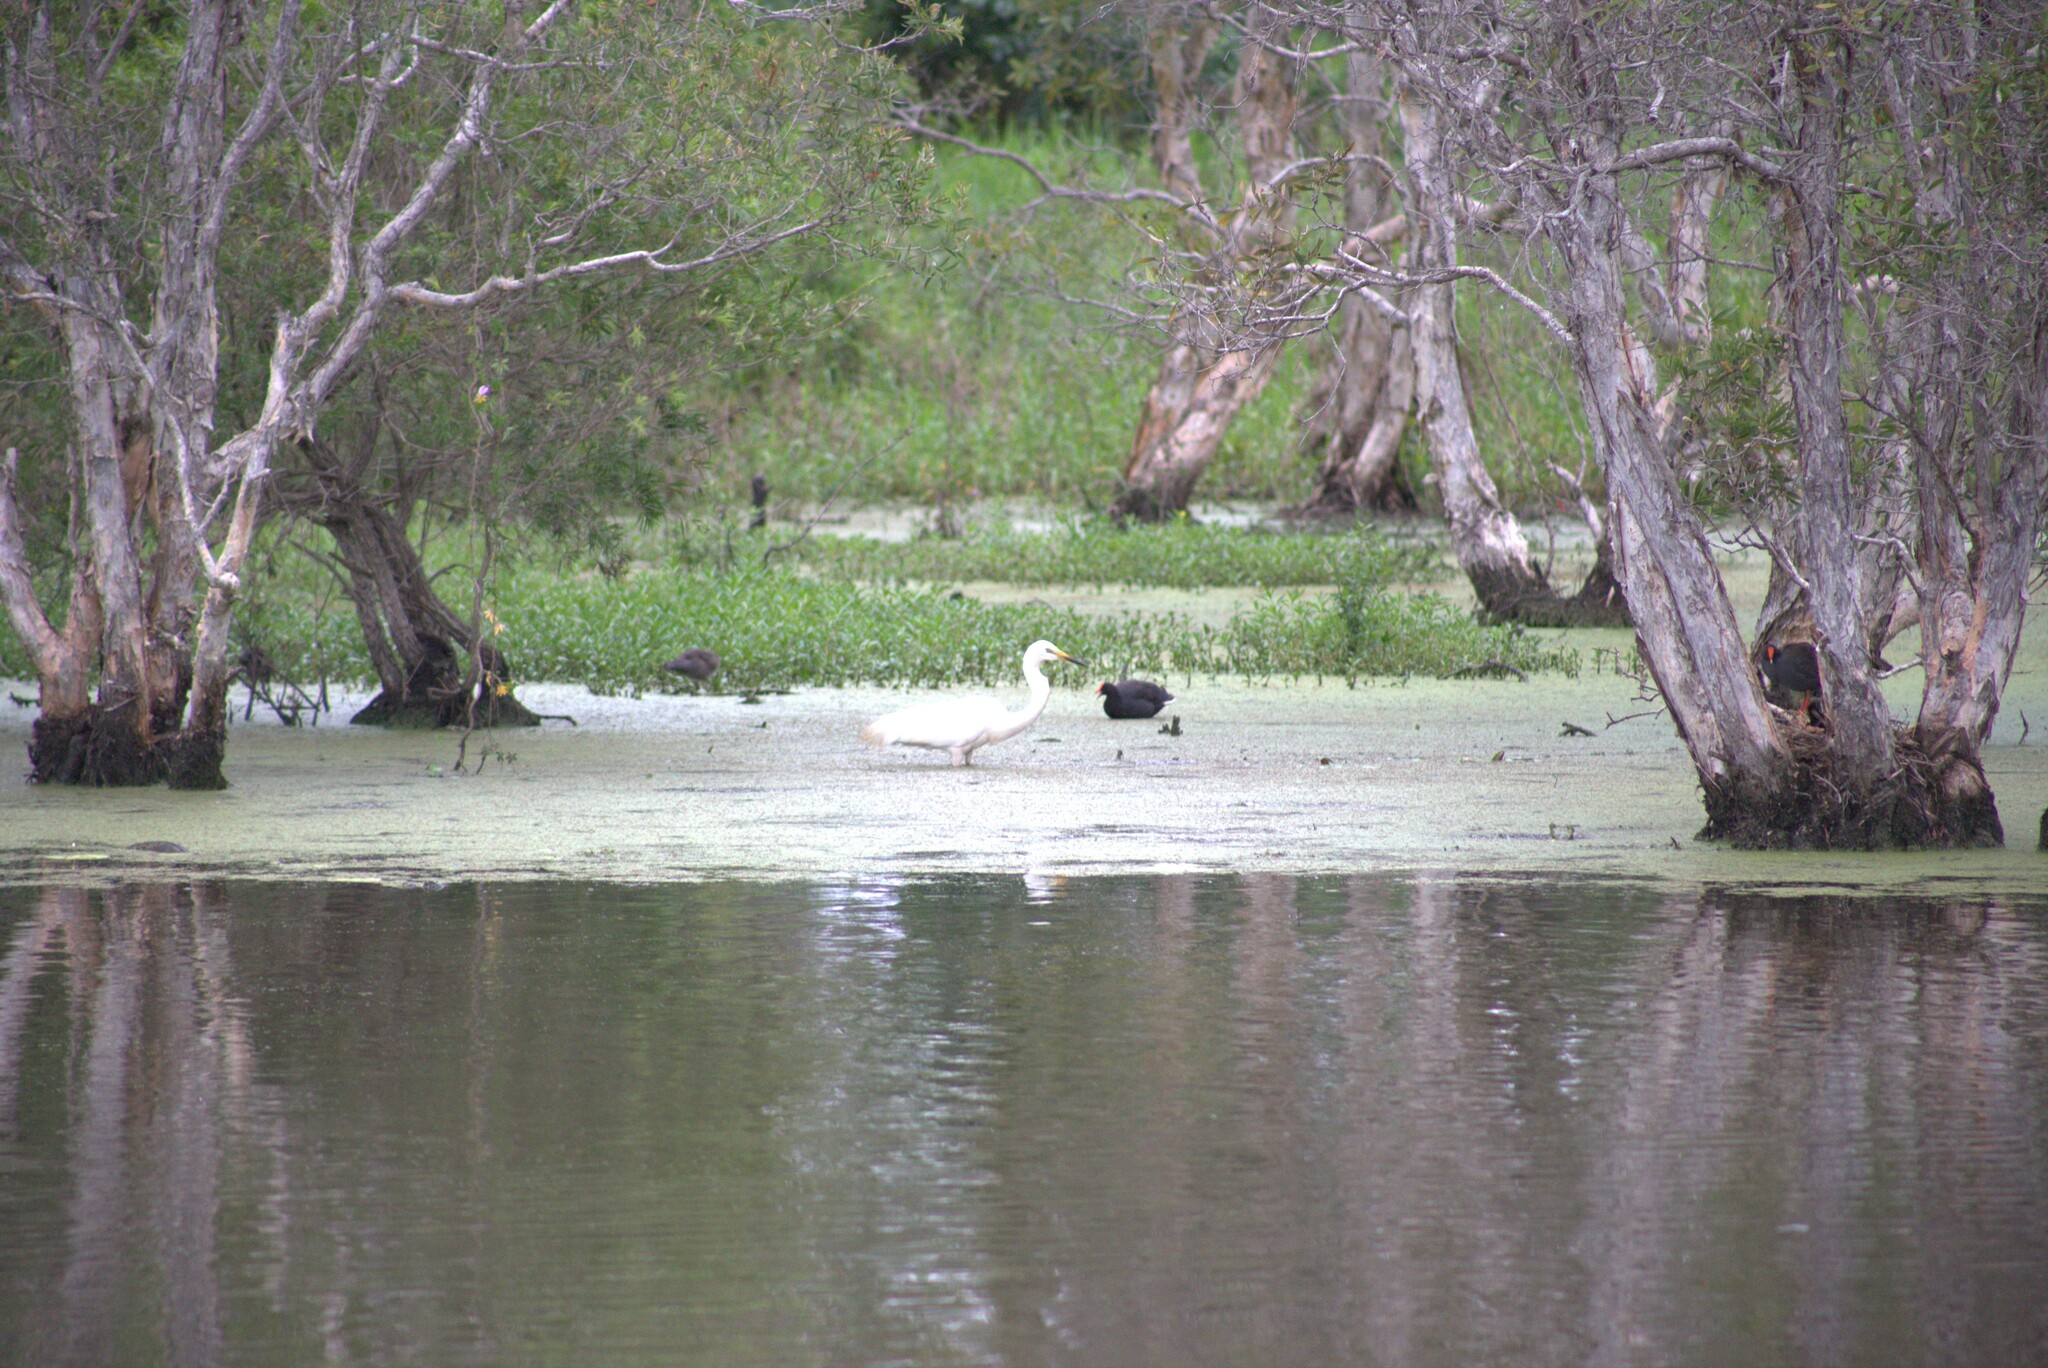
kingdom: Animalia
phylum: Chordata
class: Aves
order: Pelecaniformes
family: Ardeidae
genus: Ardea
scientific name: Ardea alba
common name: Great egret
